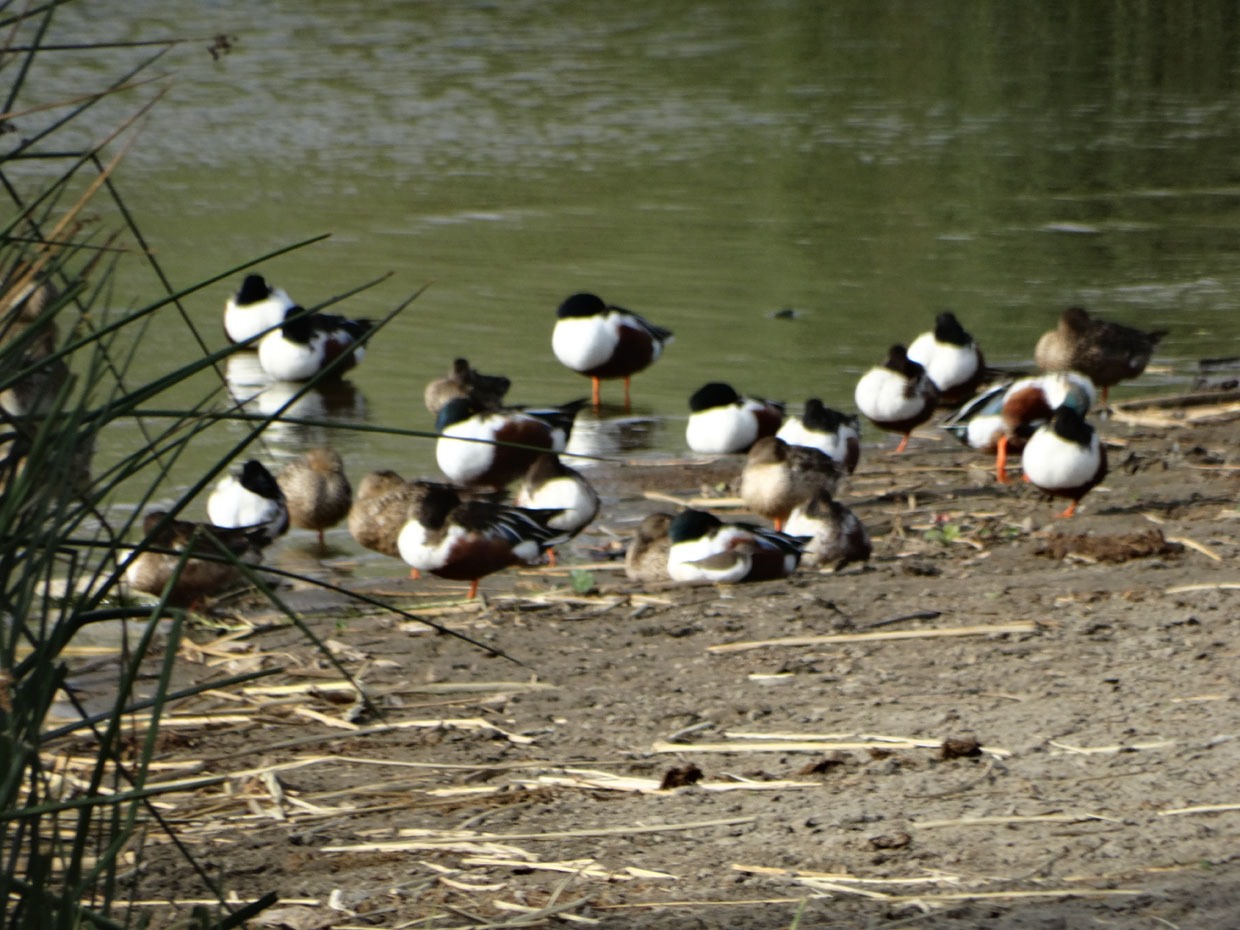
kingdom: Animalia
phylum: Chordata
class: Aves
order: Anseriformes
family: Anatidae
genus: Spatula
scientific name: Spatula clypeata
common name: Northern shoveler
